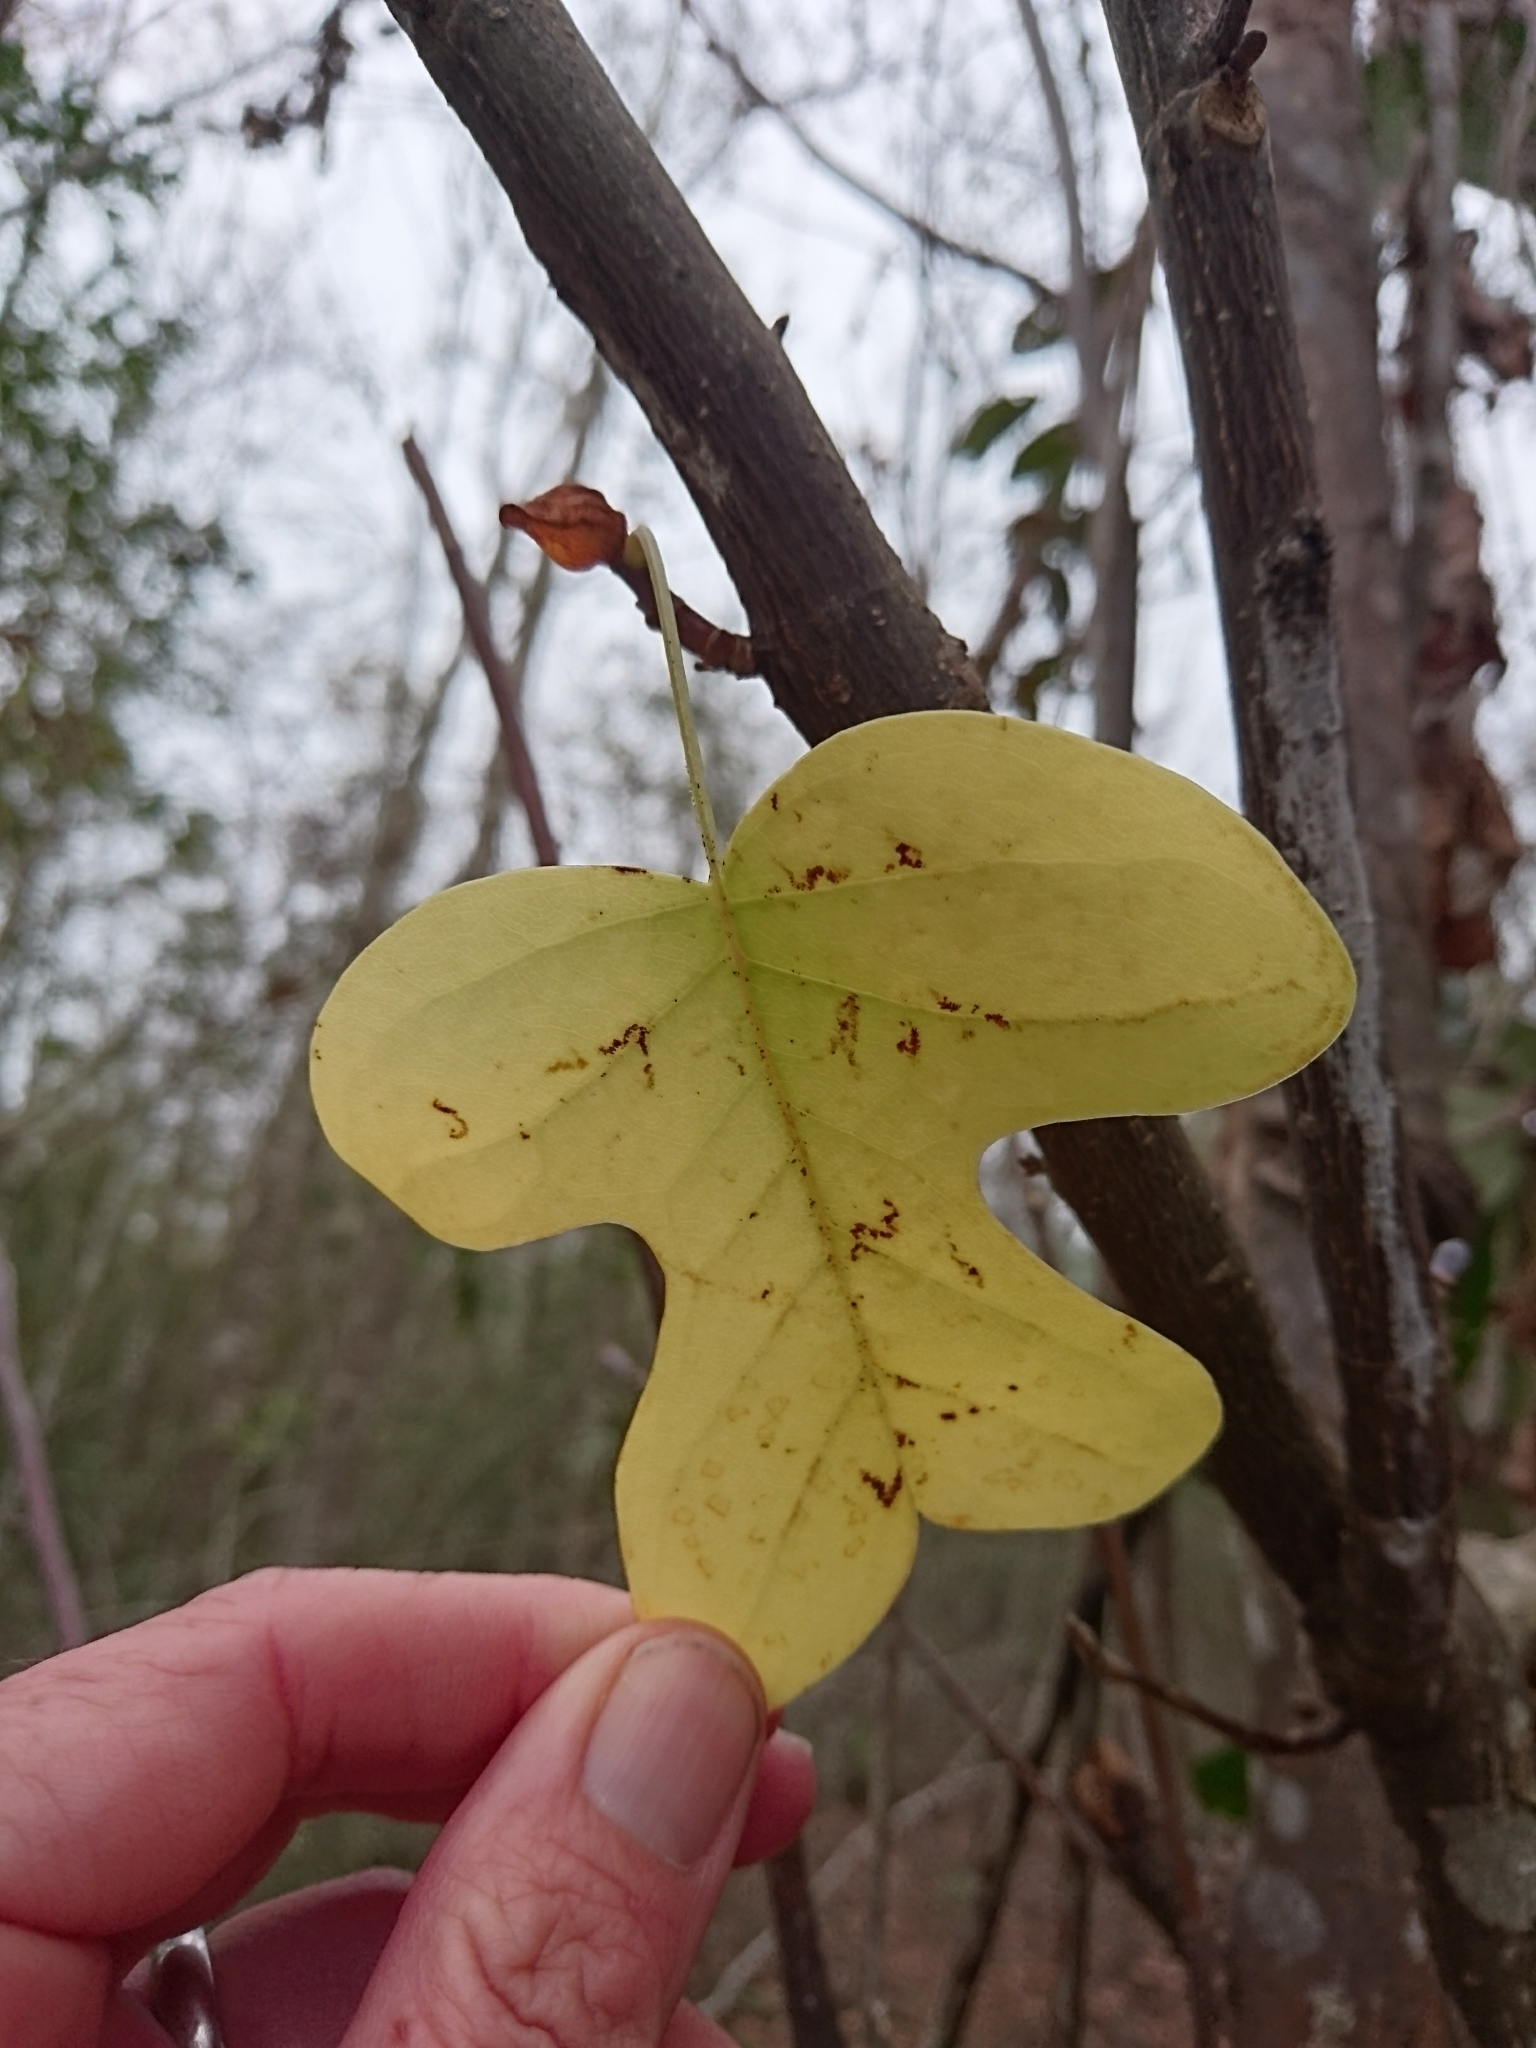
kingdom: Plantae
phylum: Tracheophyta
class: Magnoliopsida
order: Magnoliales
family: Magnoliaceae
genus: Liriodendron
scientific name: Liriodendron tulipifera
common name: Tulip tree
